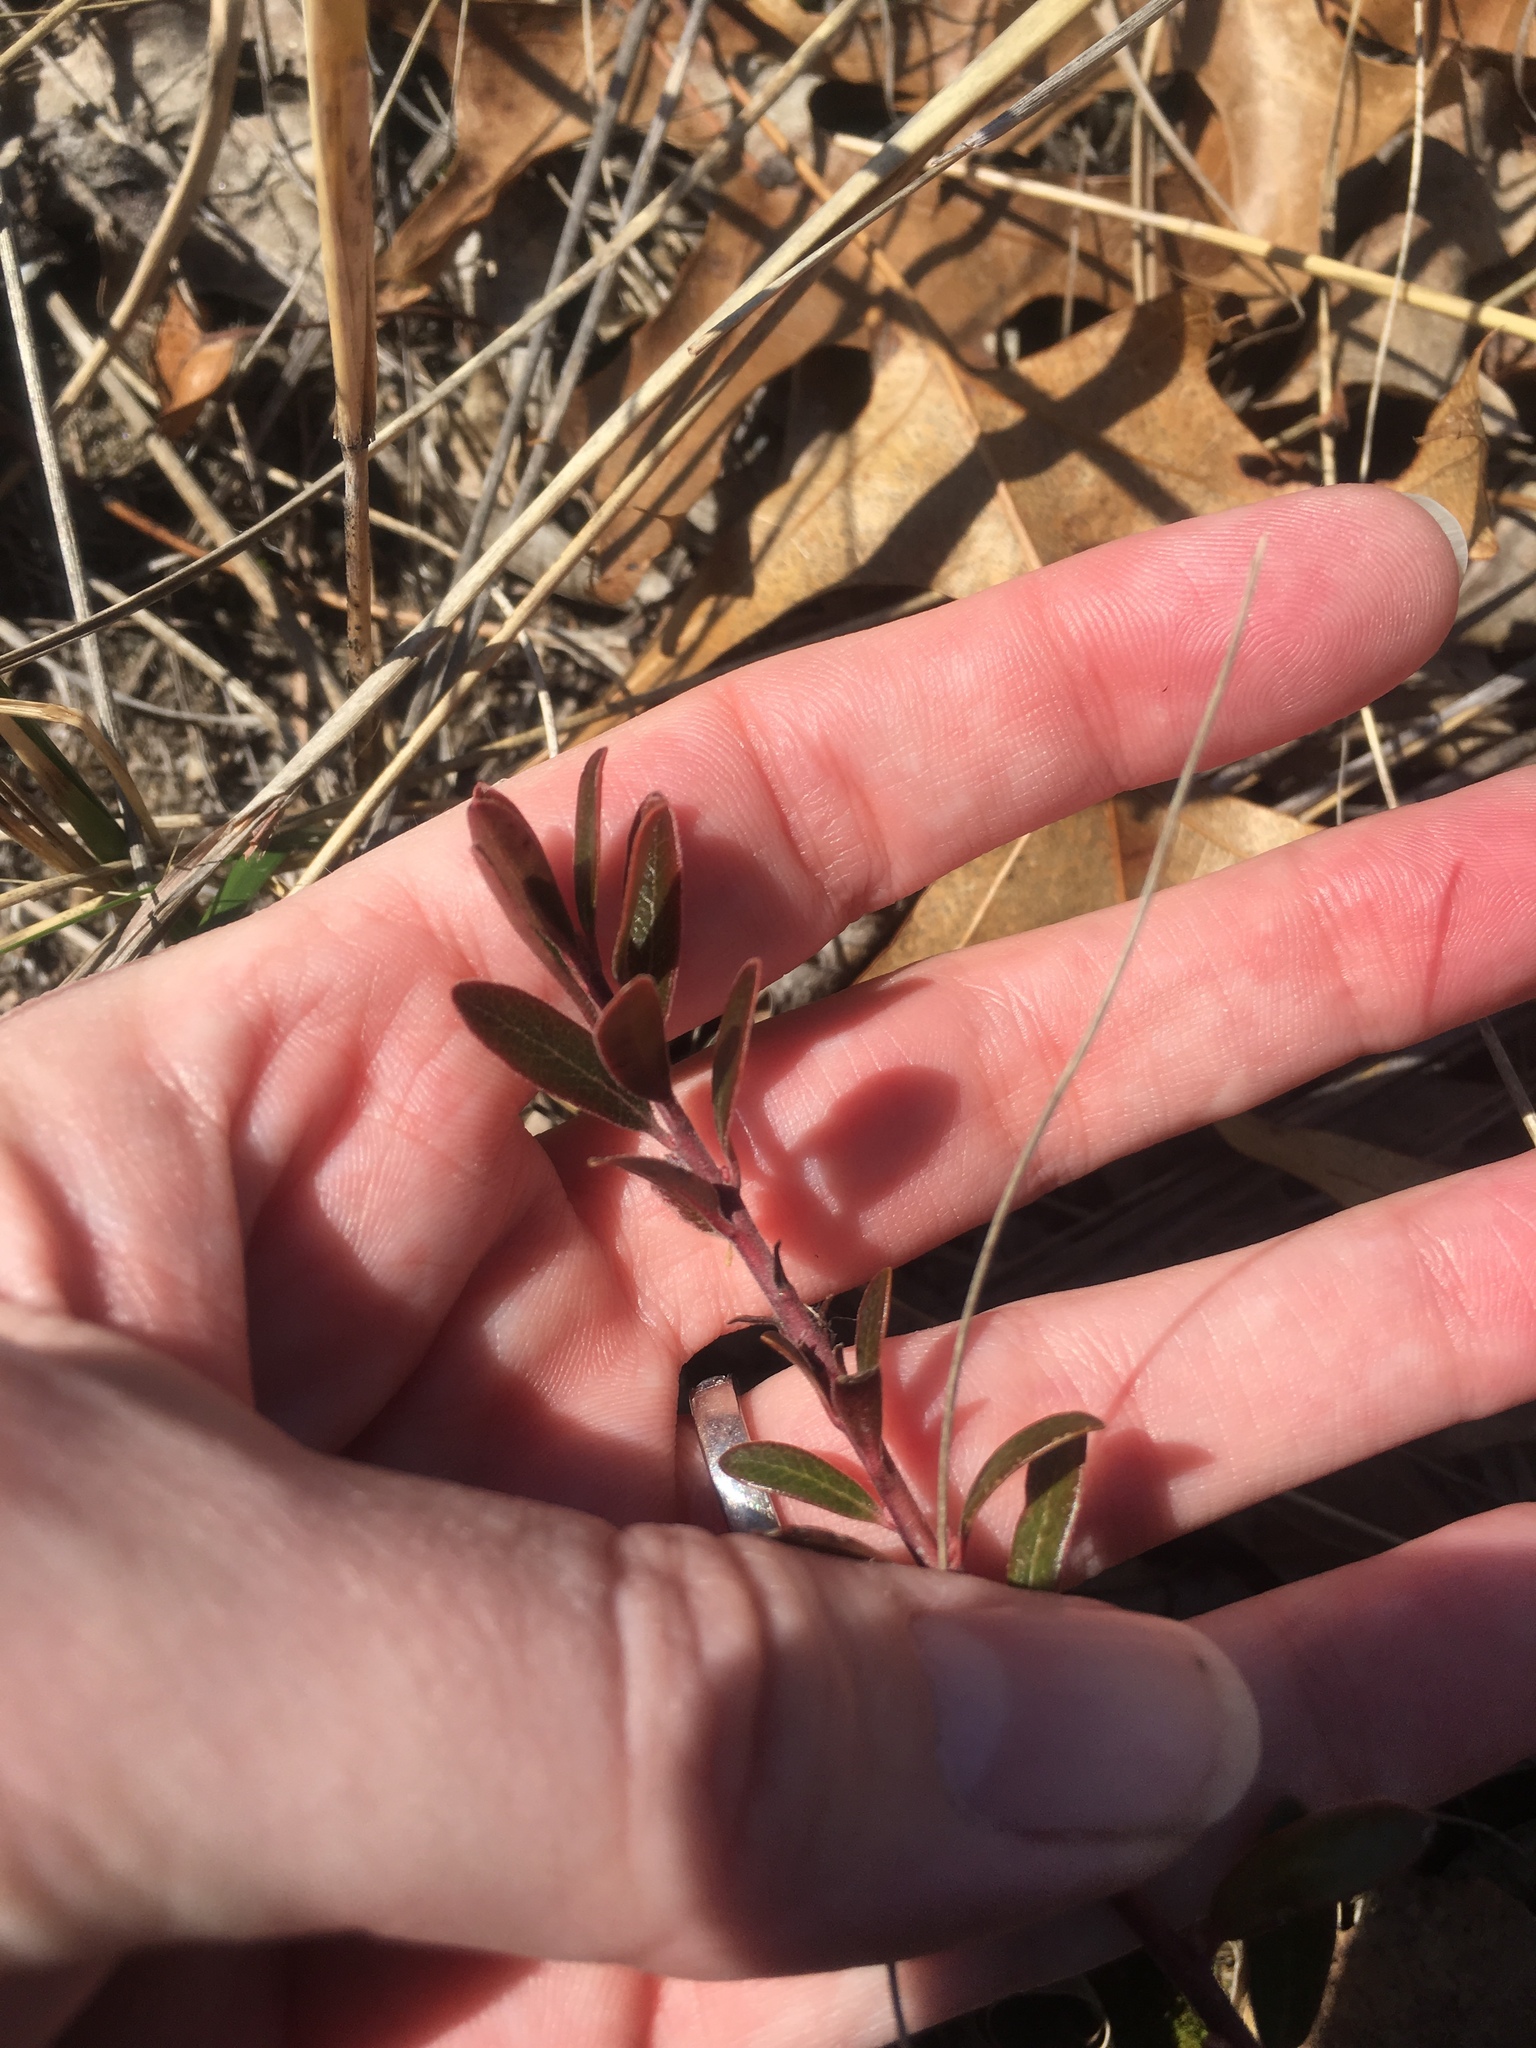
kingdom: Plantae
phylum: Tracheophyta
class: Magnoliopsida
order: Ericales
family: Ericaceae
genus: Arctostaphylos
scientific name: Arctostaphylos uva-ursi
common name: Bearberry
